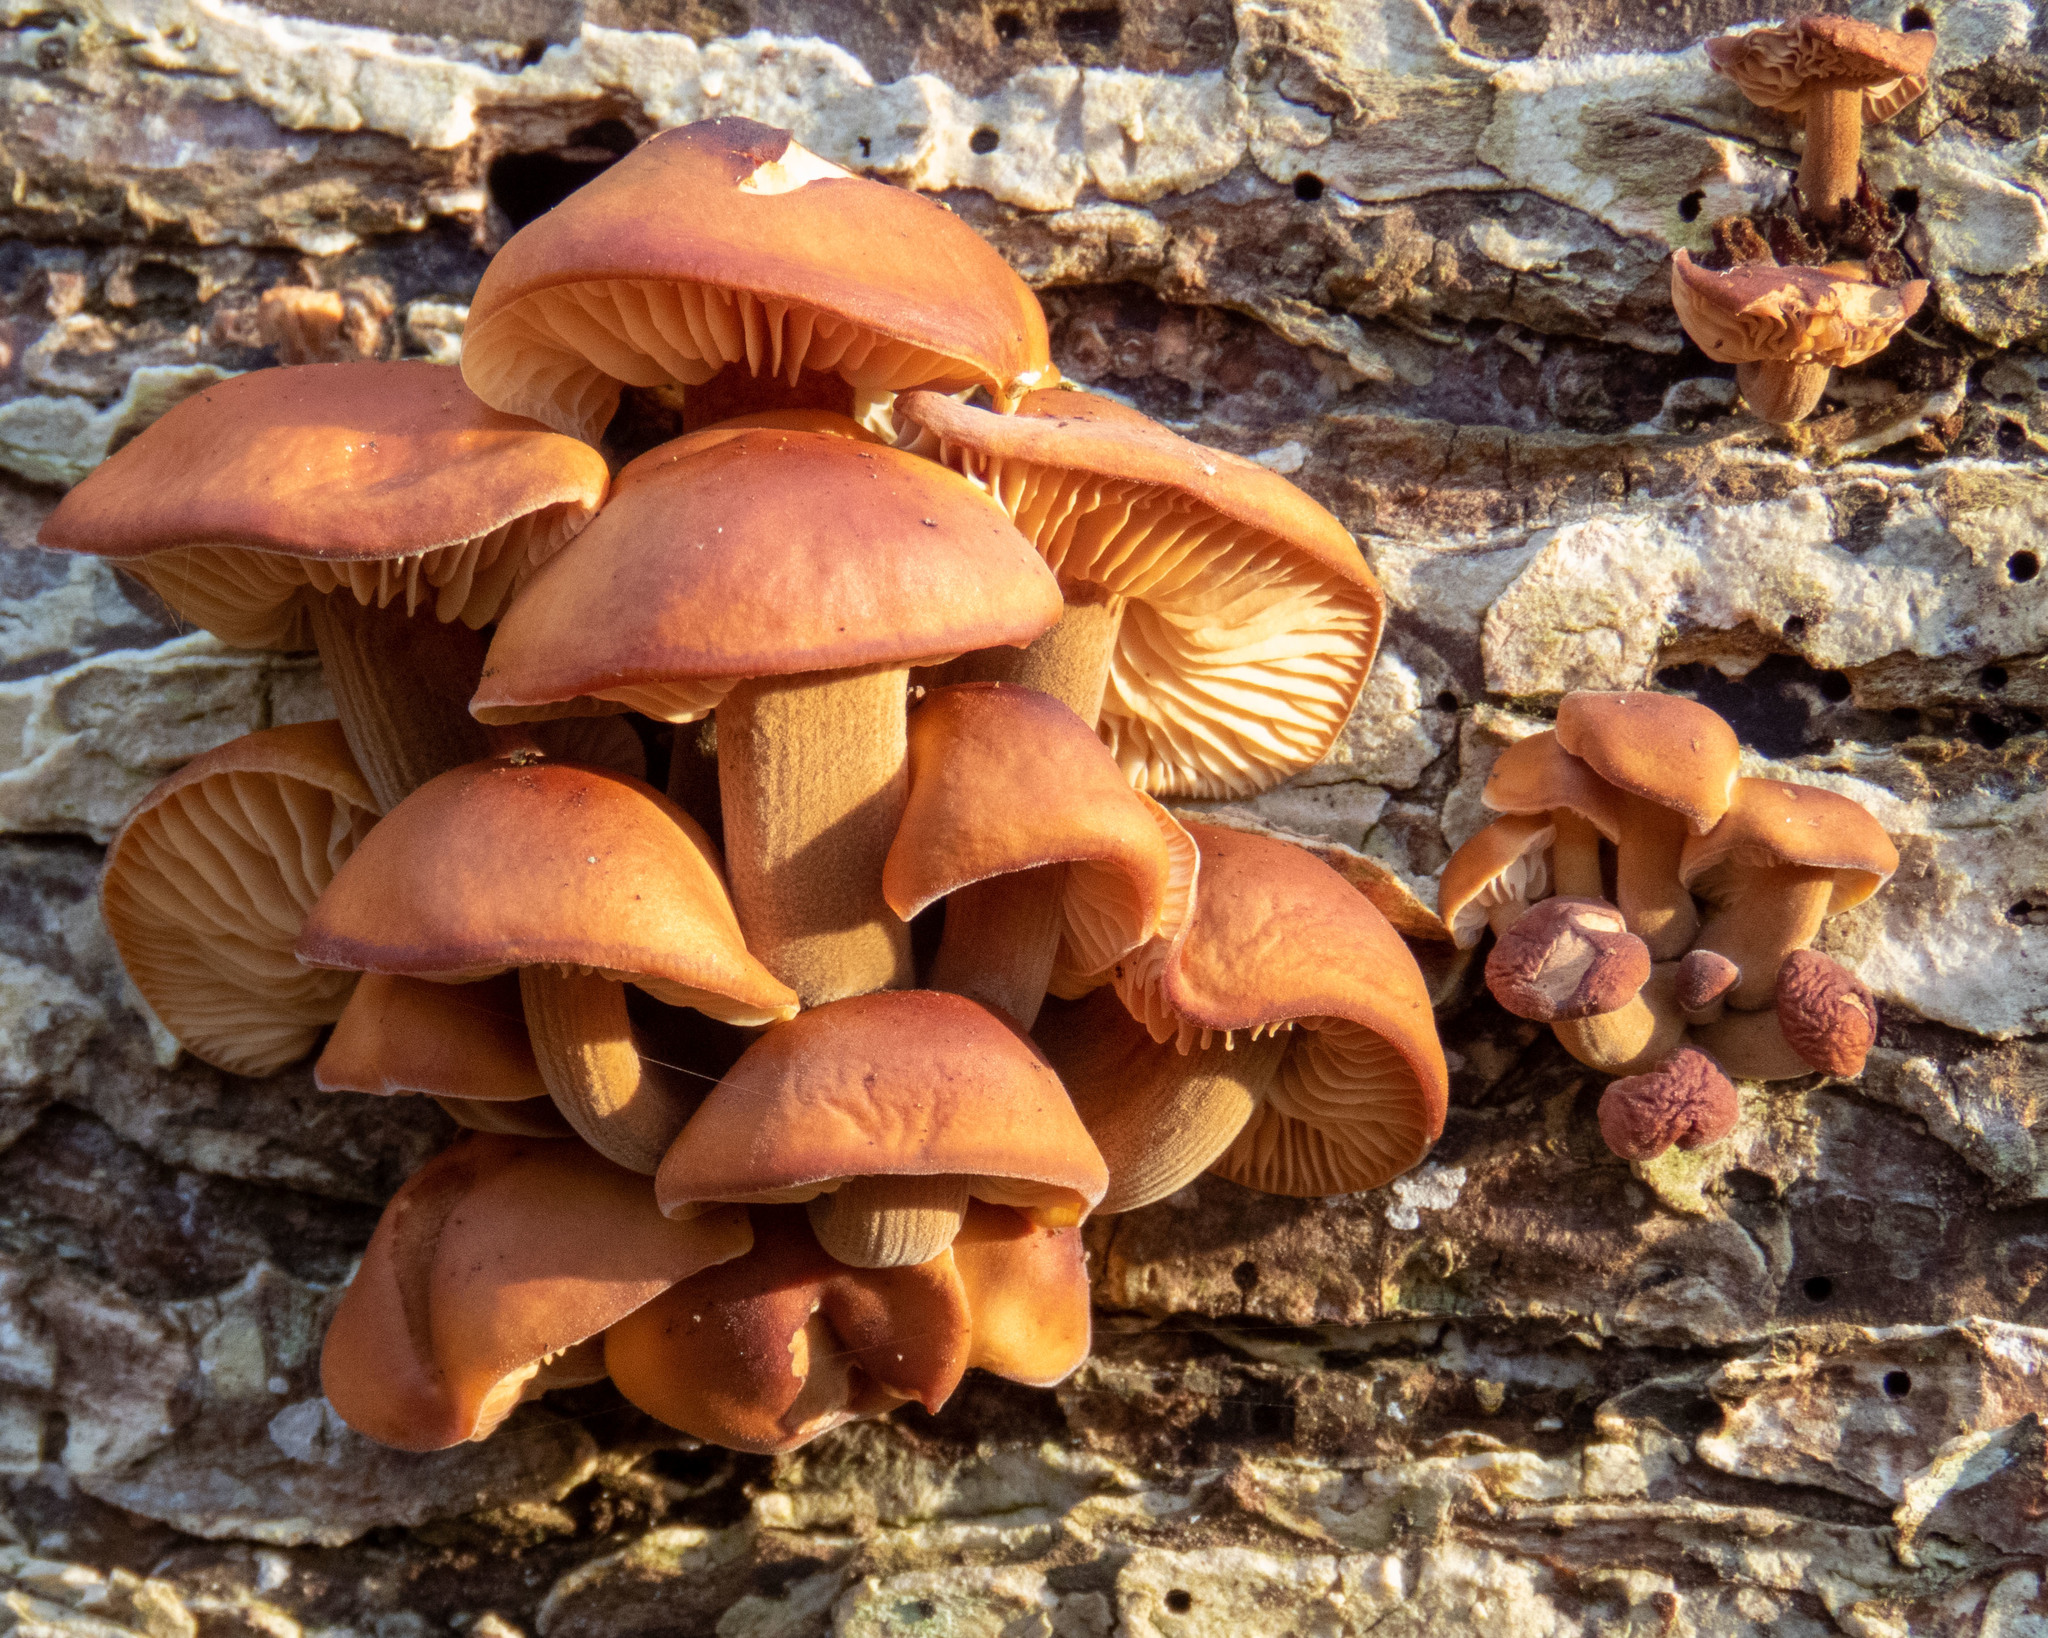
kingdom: Fungi
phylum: Basidiomycota
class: Agaricomycetes
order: Agaricales
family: Physalacriaceae
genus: Flammulina
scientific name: Flammulina velutipes
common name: Velvet shank
